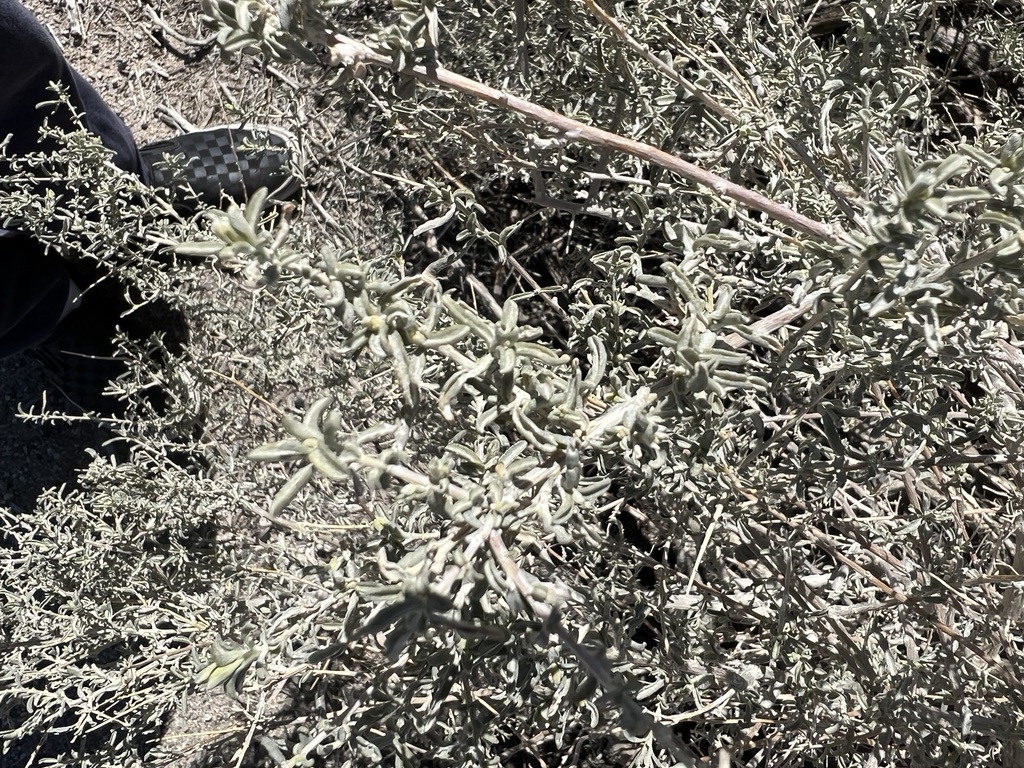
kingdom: Plantae
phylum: Tracheophyta
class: Magnoliopsida
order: Caryophyllales
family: Amaranthaceae
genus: Atriplex
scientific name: Atriplex canescens
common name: Four-wing saltbush
